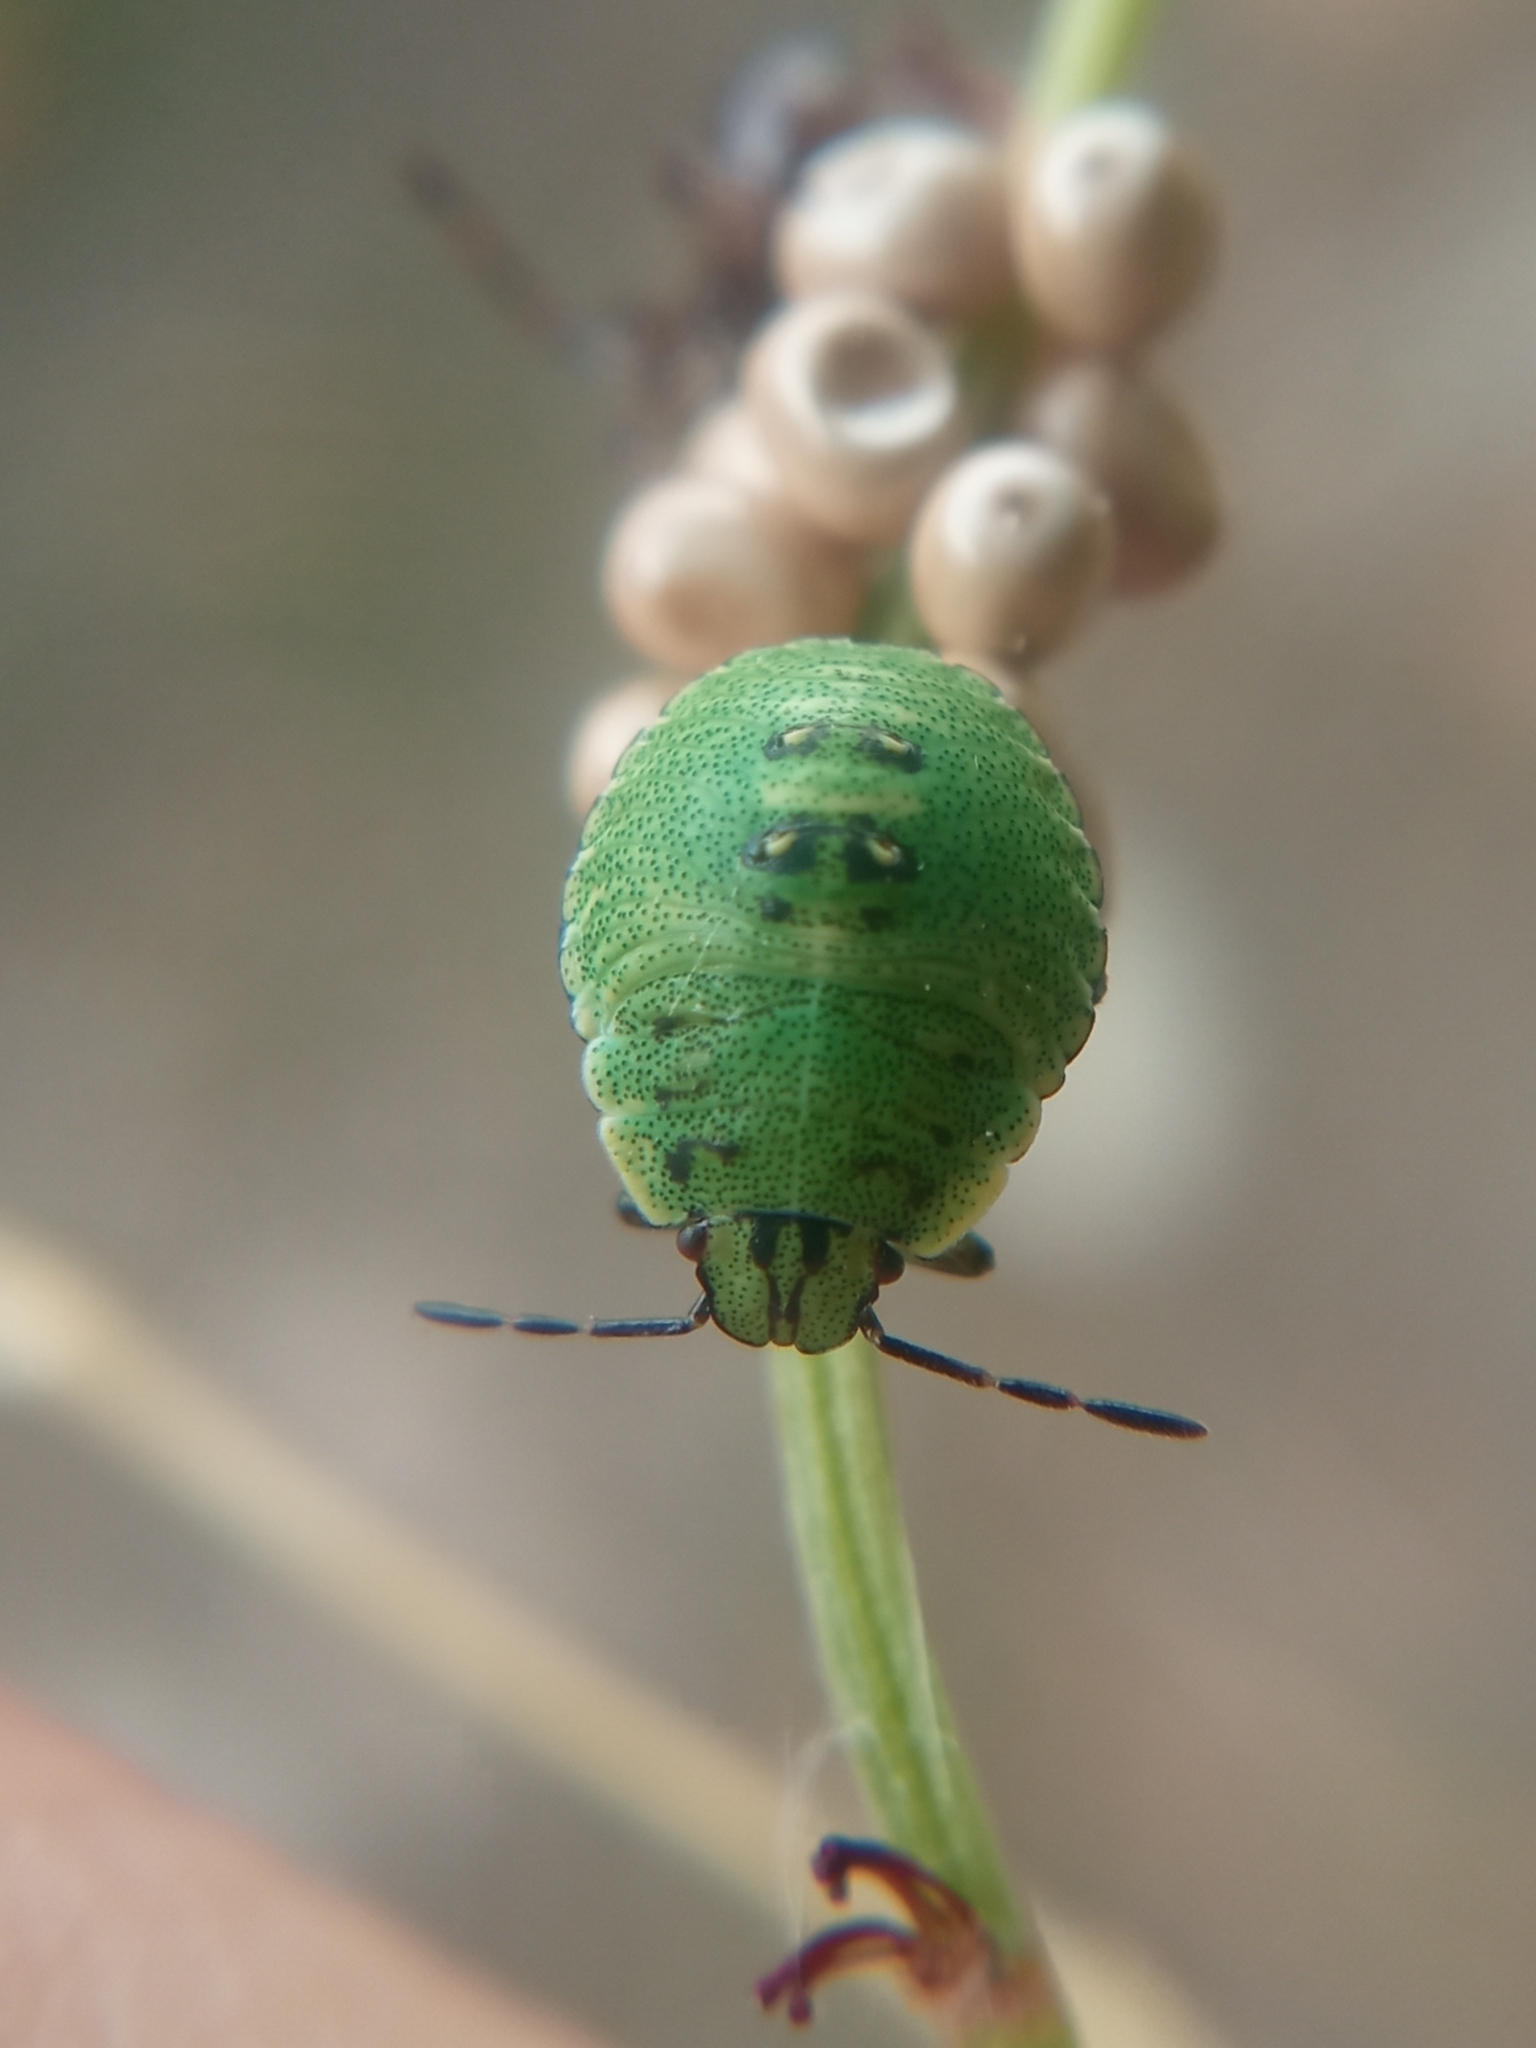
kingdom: Animalia
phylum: Arthropoda
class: Insecta
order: Hemiptera
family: Pentatomidae
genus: Palomena
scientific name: Palomena prasina
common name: Green shieldbug
